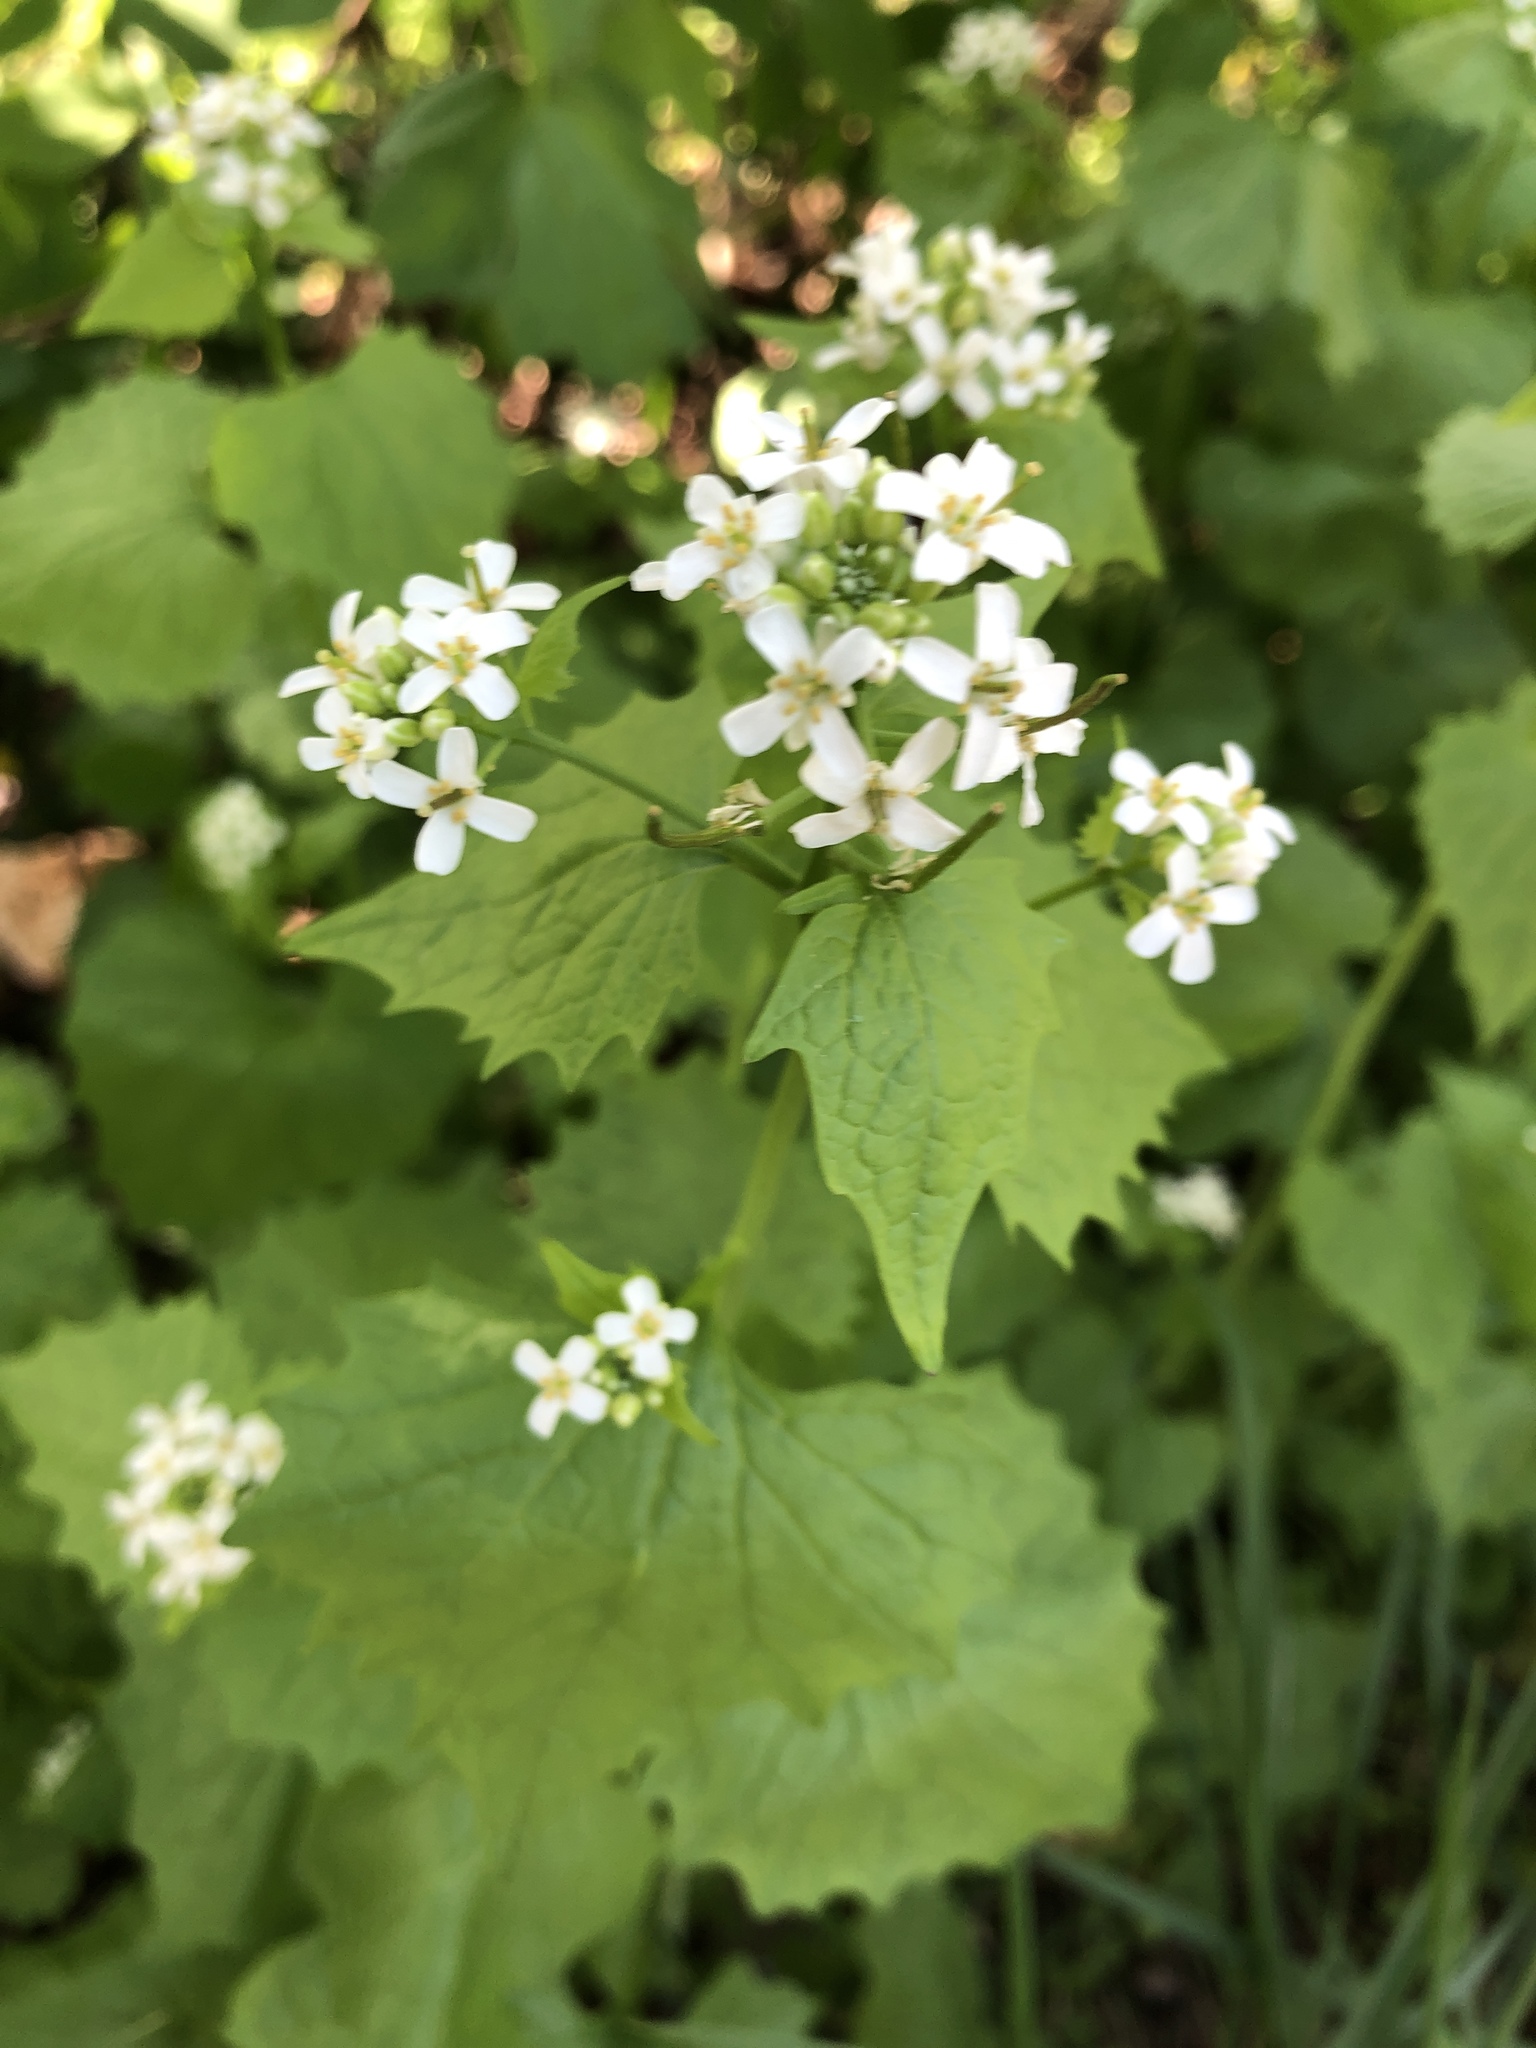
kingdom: Plantae
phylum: Tracheophyta
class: Magnoliopsida
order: Brassicales
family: Brassicaceae
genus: Alliaria
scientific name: Alliaria petiolata
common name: Garlic mustard
